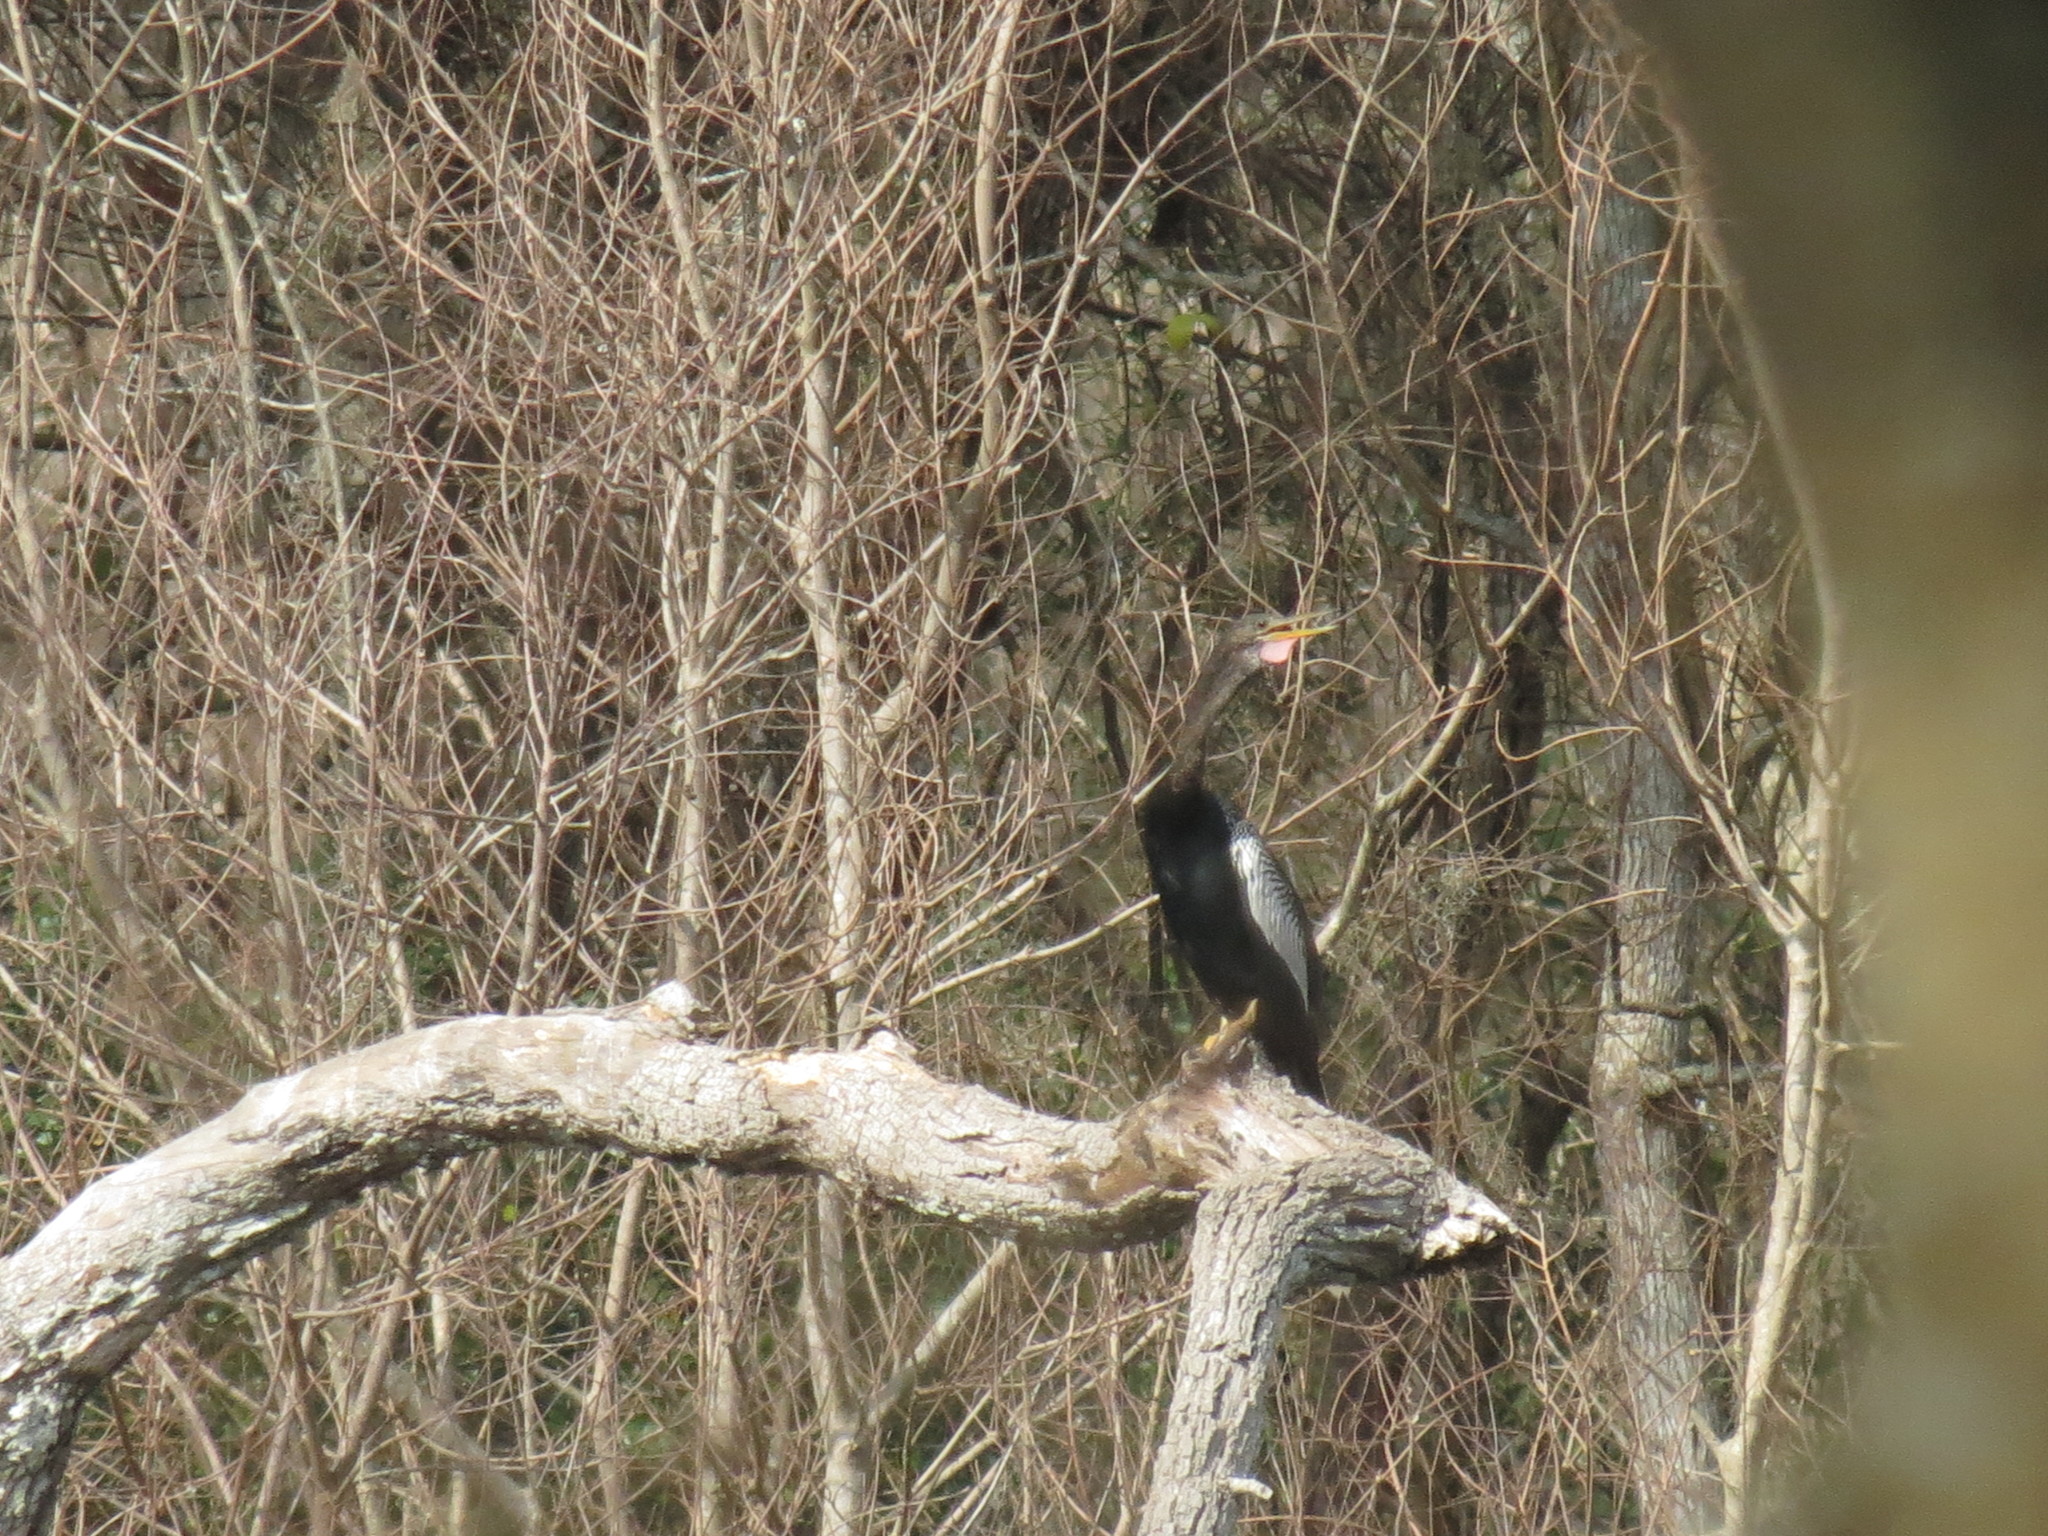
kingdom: Animalia
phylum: Chordata
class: Aves
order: Suliformes
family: Anhingidae
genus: Anhinga
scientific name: Anhinga anhinga
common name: Anhinga
